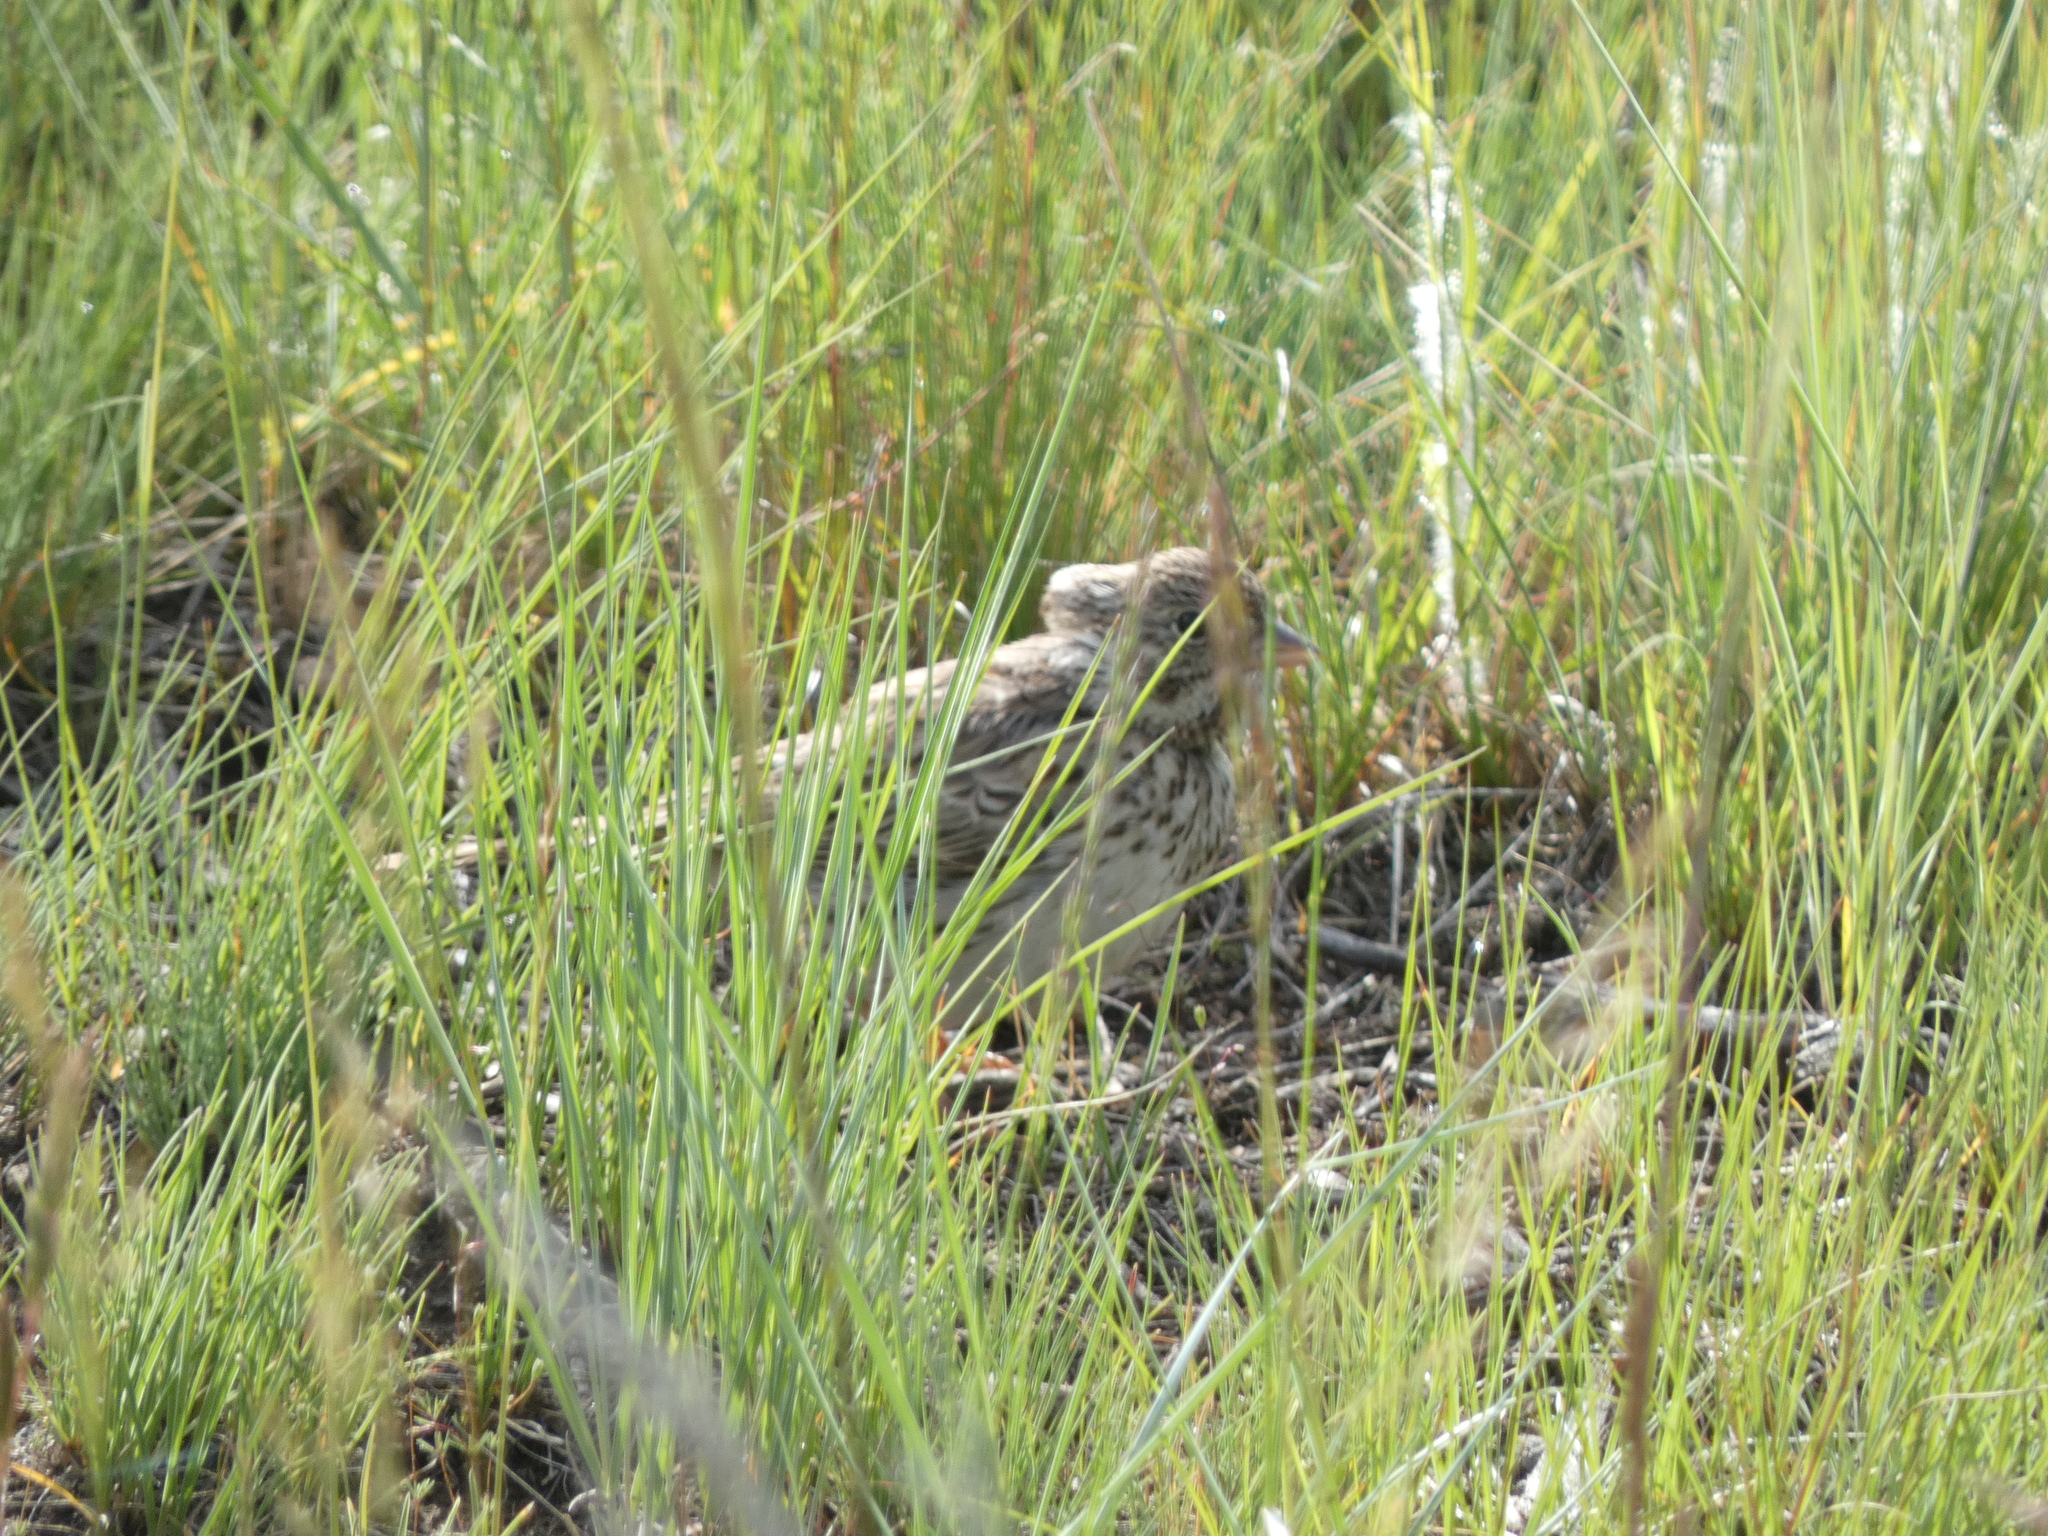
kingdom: Animalia
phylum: Chordata
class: Aves
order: Passeriformes
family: Passerellidae
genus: Pooecetes
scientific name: Pooecetes gramineus
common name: Vesper sparrow
